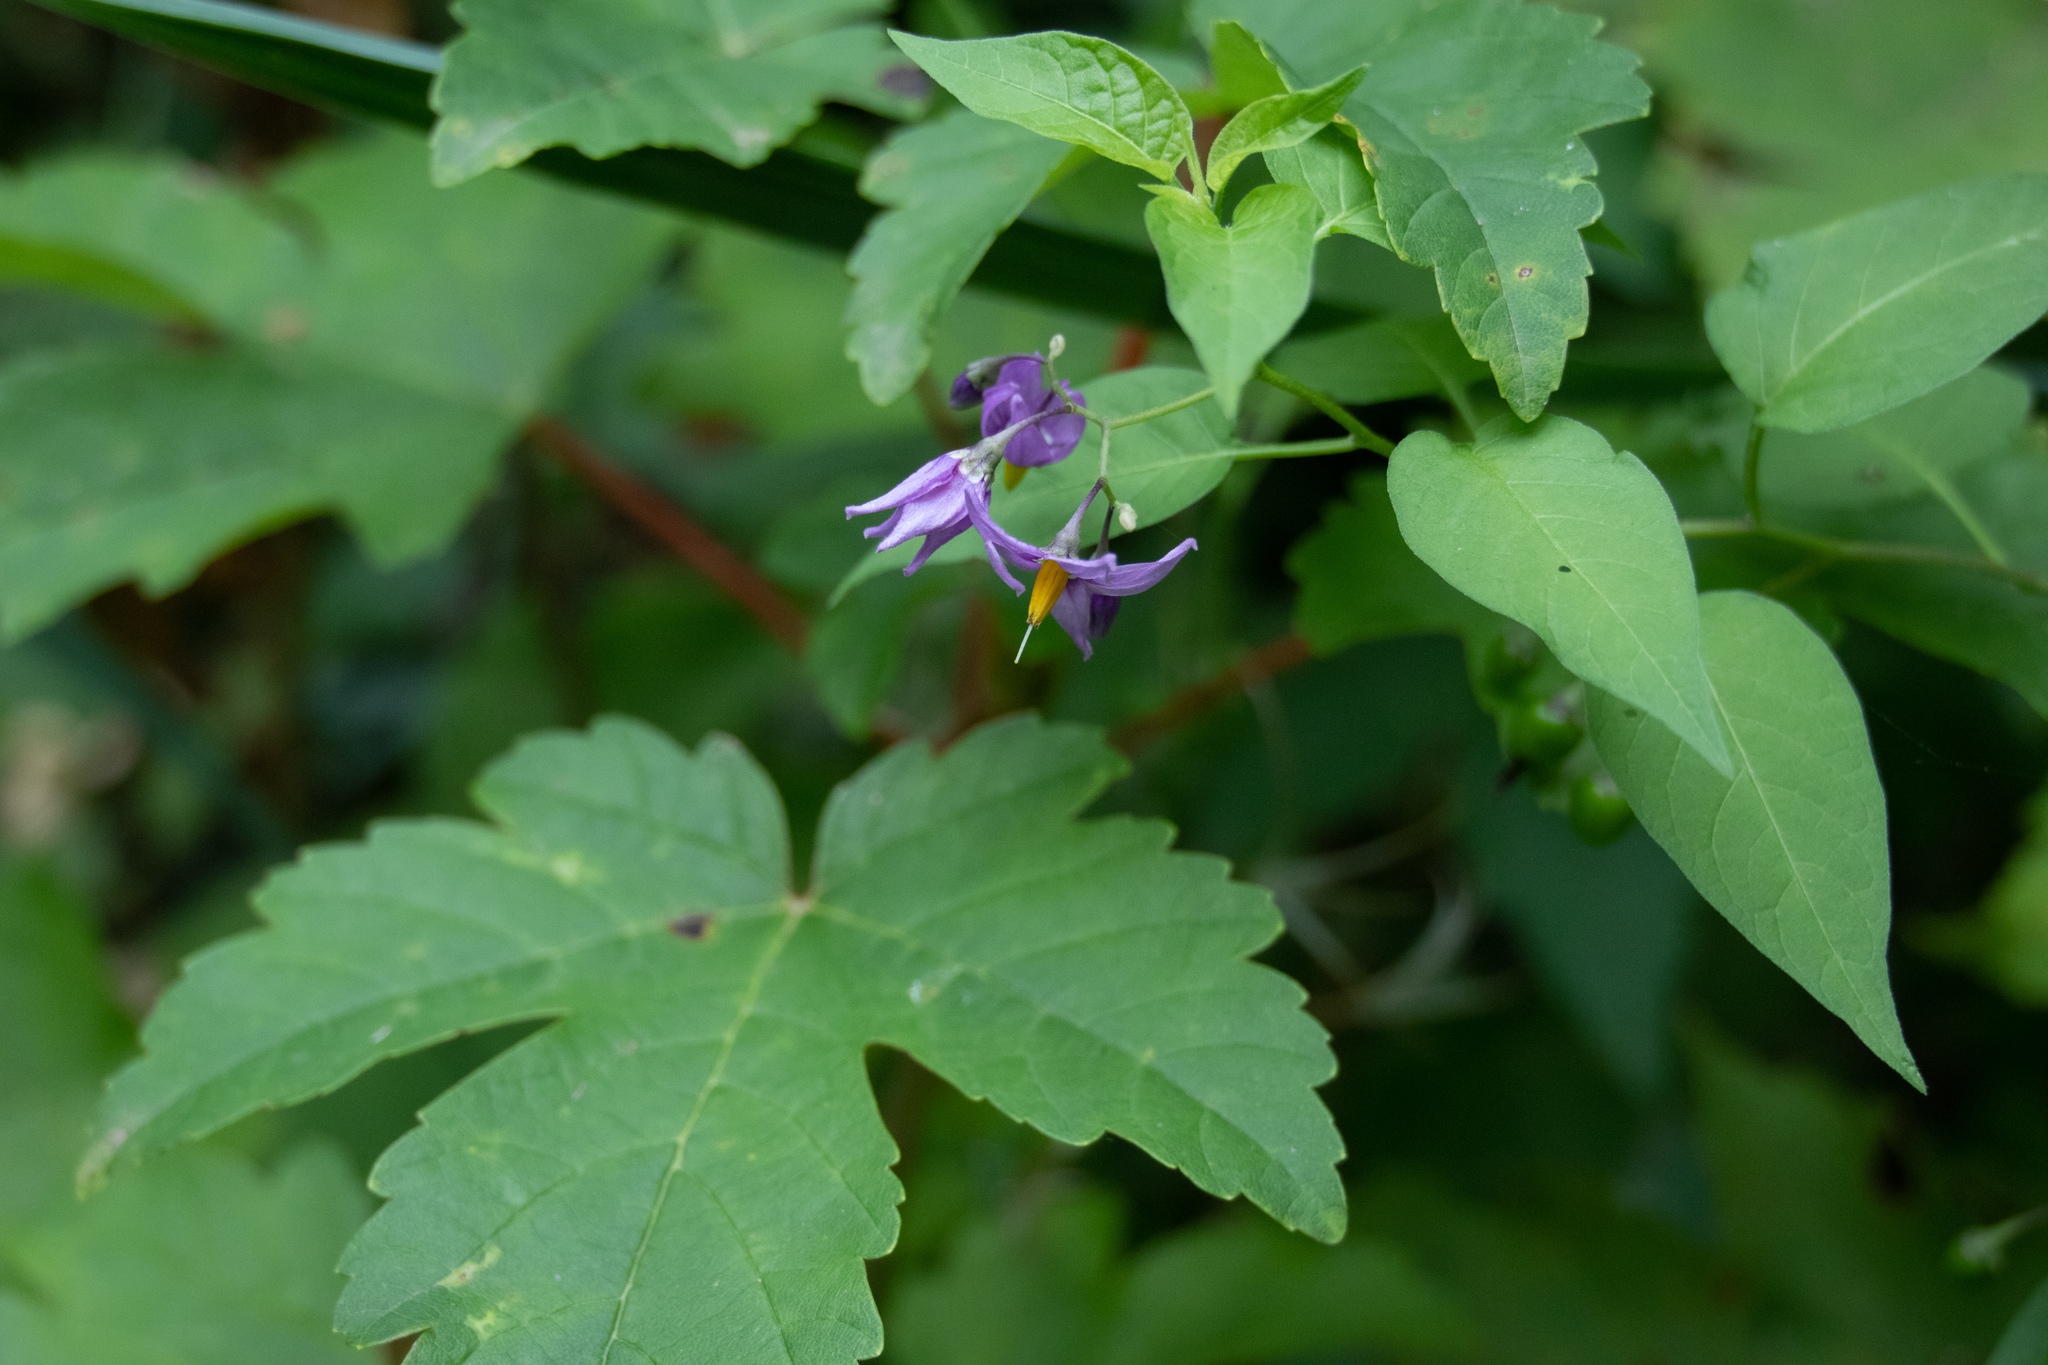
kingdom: Plantae
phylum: Tracheophyta
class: Magnoliopsida
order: Solanales
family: Solanaceae
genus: Solanum
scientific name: Solanum dulcamara
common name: Climbing nightshade
